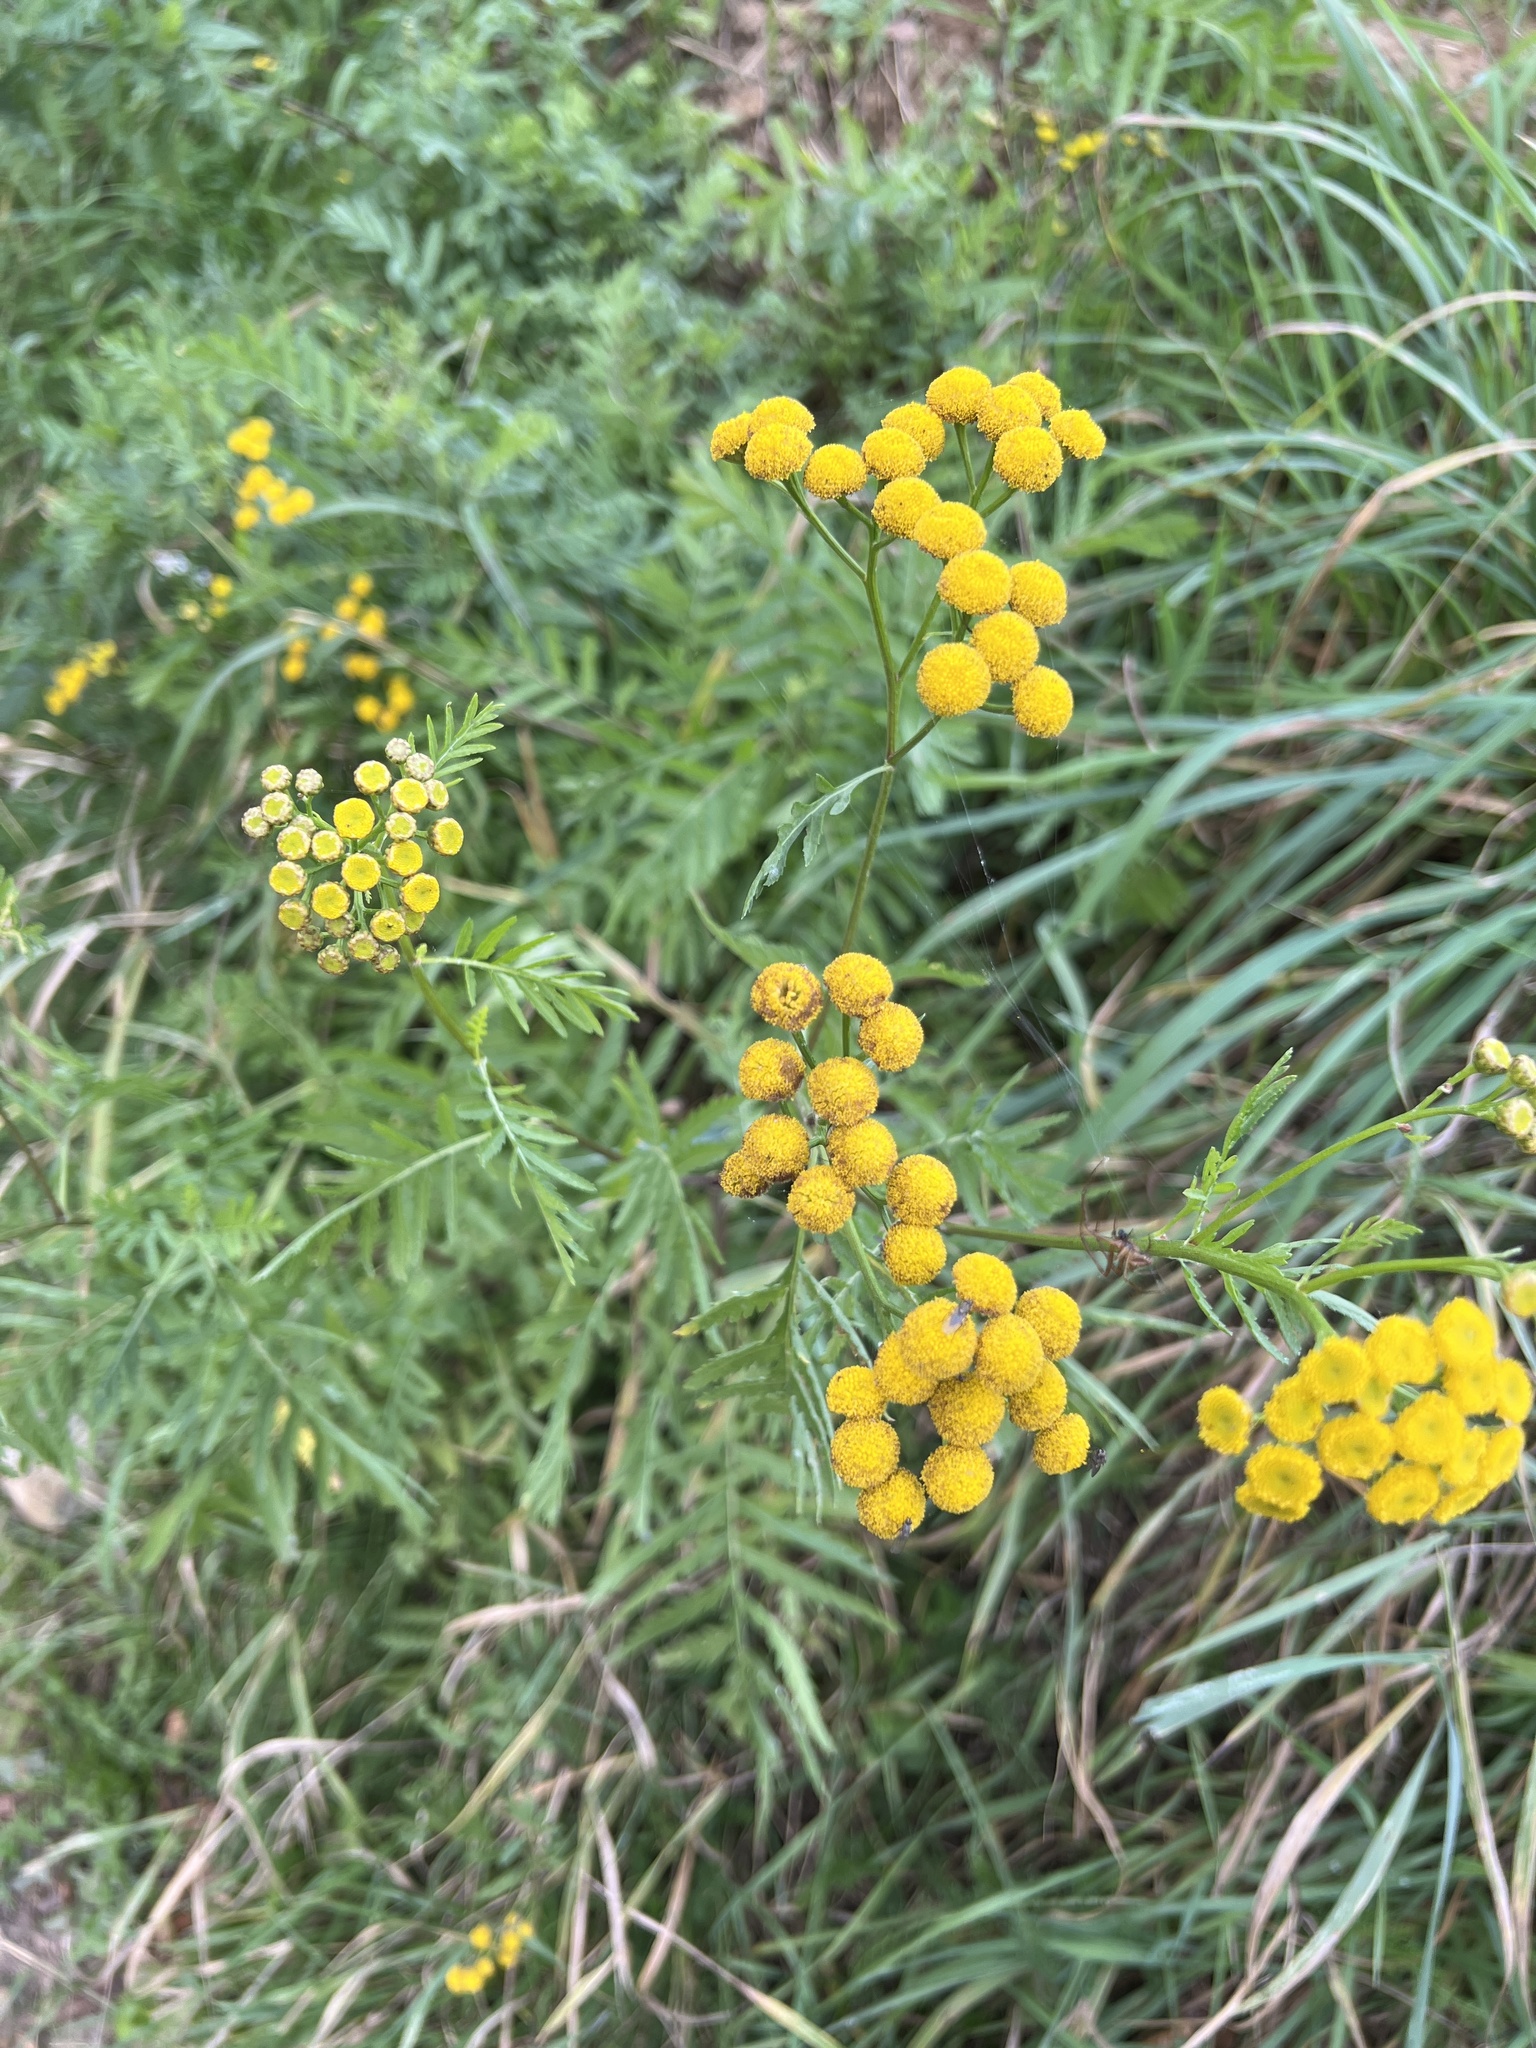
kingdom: Plantae
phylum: Tracheophyta
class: Magnoliopsida
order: Asterales
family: Asteraceae
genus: Tanacetum
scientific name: Tanacetum vulgare
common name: Common tansy
